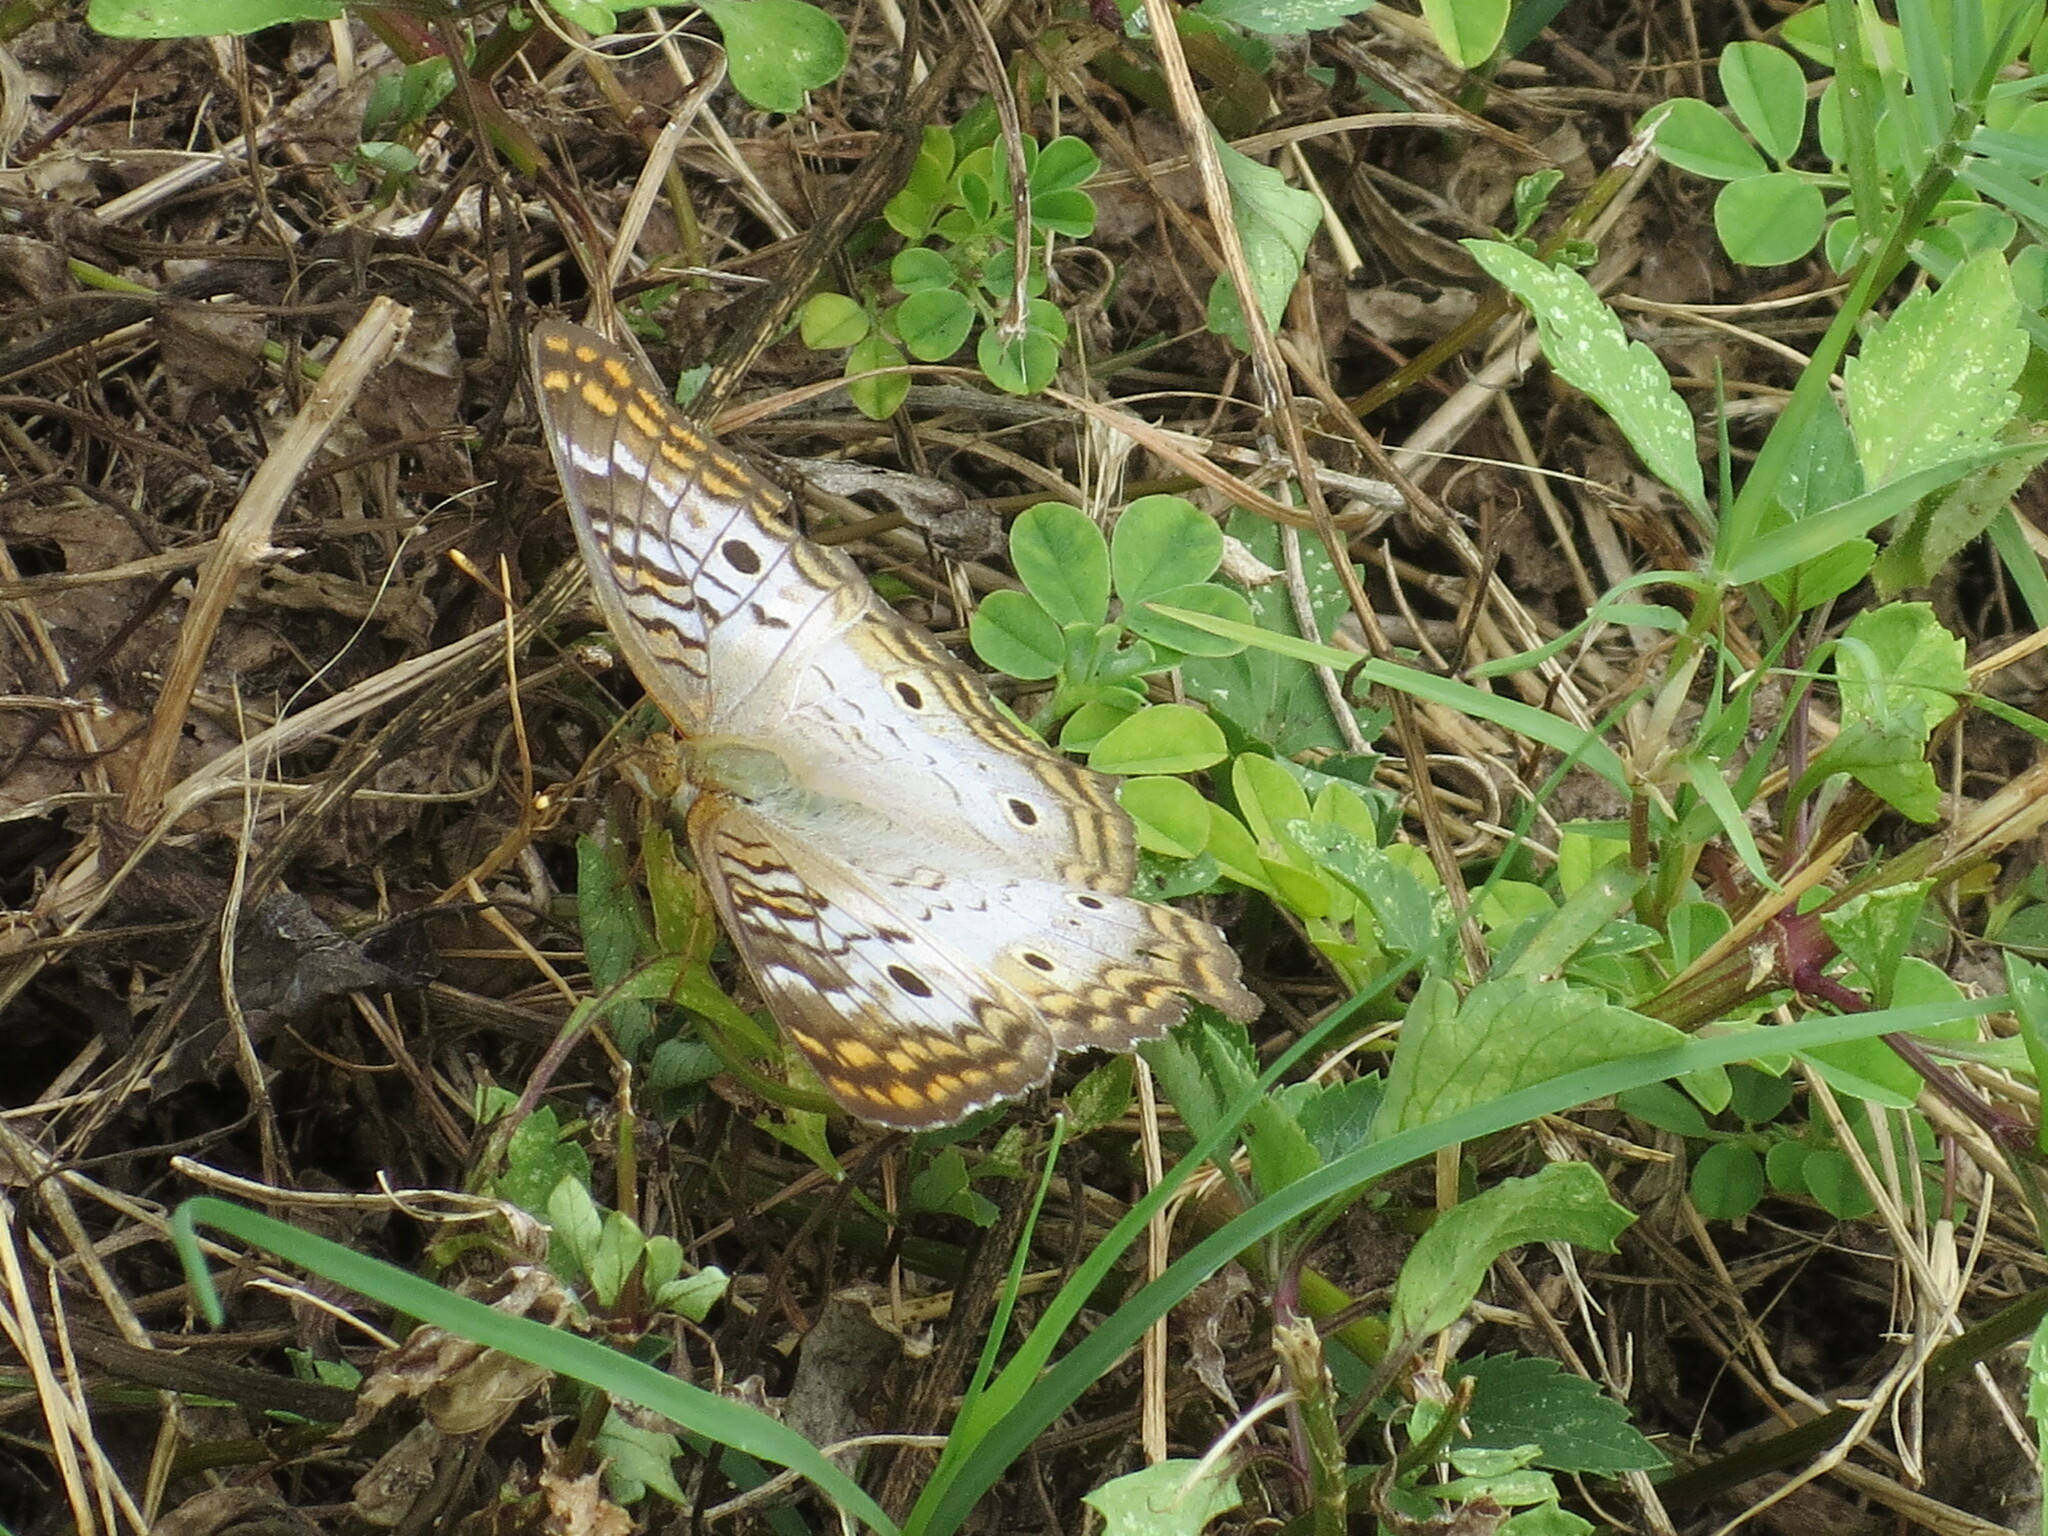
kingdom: Animalia
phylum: Arthropoda
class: Insecta
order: Lepidoptera
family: Nymphalidae
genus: Anartia
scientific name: Anartia jatrophae
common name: White peacock
